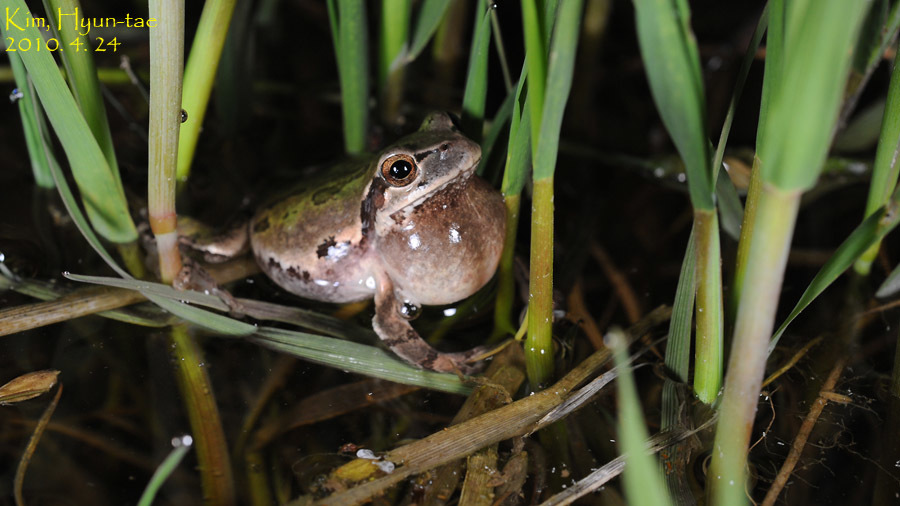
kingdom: Animalia
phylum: Chordata
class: Amphibia
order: Anura
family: Hylidae
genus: Dryophytes
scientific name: Dryophytes japonicus
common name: Japanese treefrog
